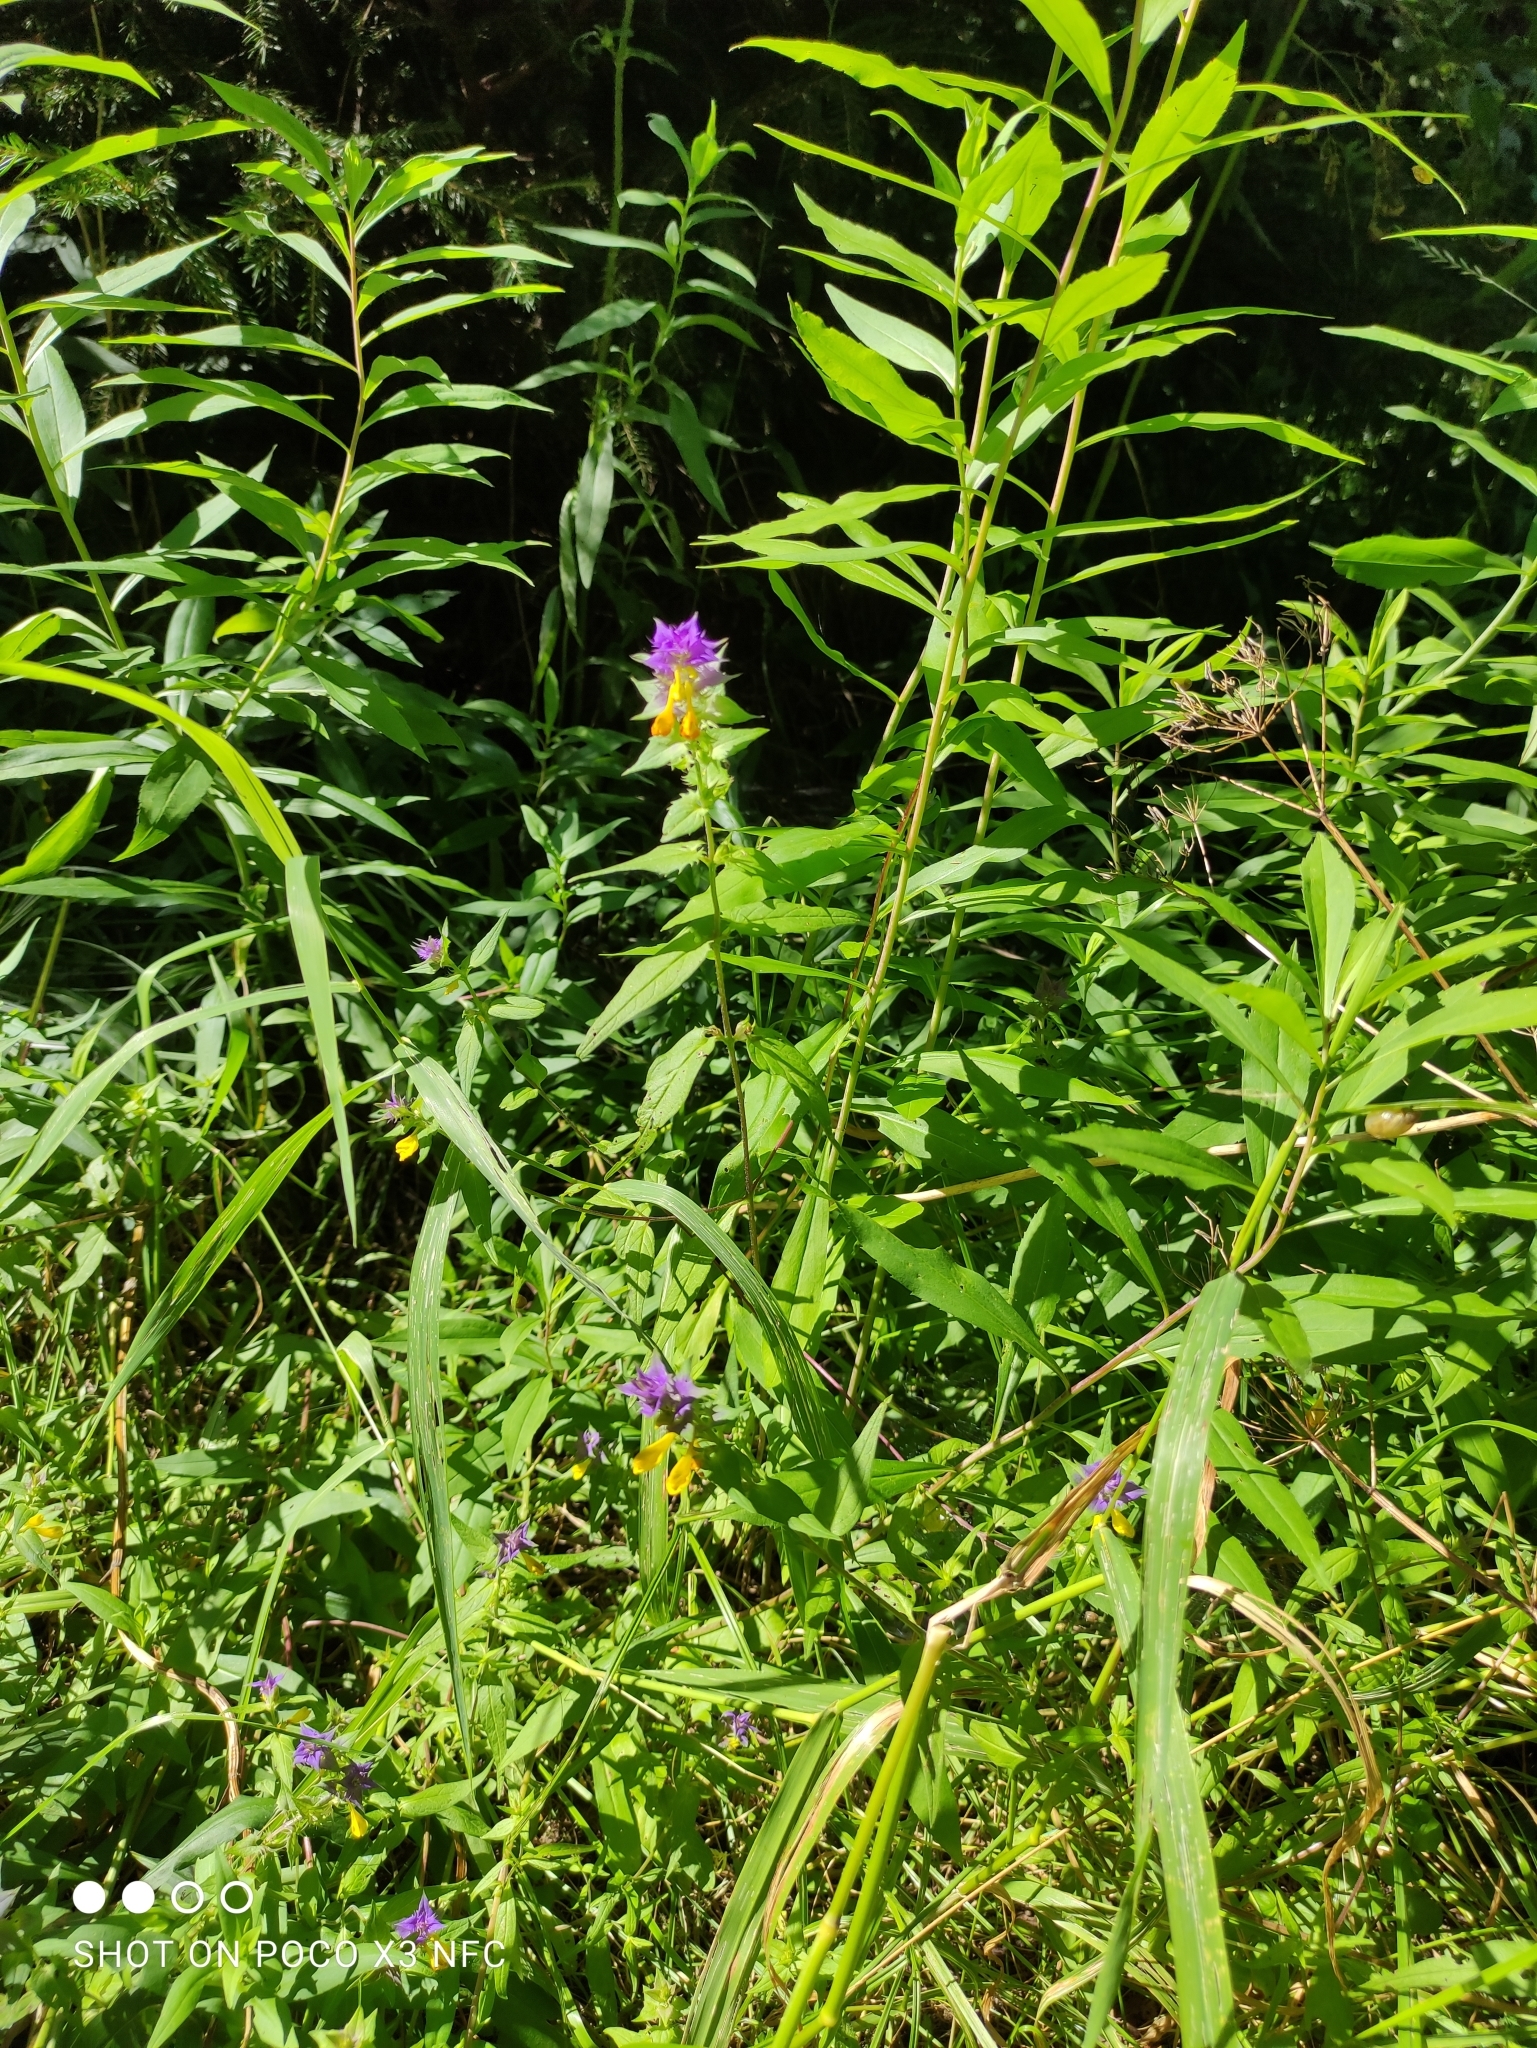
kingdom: Plantae
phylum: Tracheophyta
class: Magnoliopsida
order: Lamiales
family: Orobanchaceae
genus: Melampyrum
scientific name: Melampyrum nemorosum
